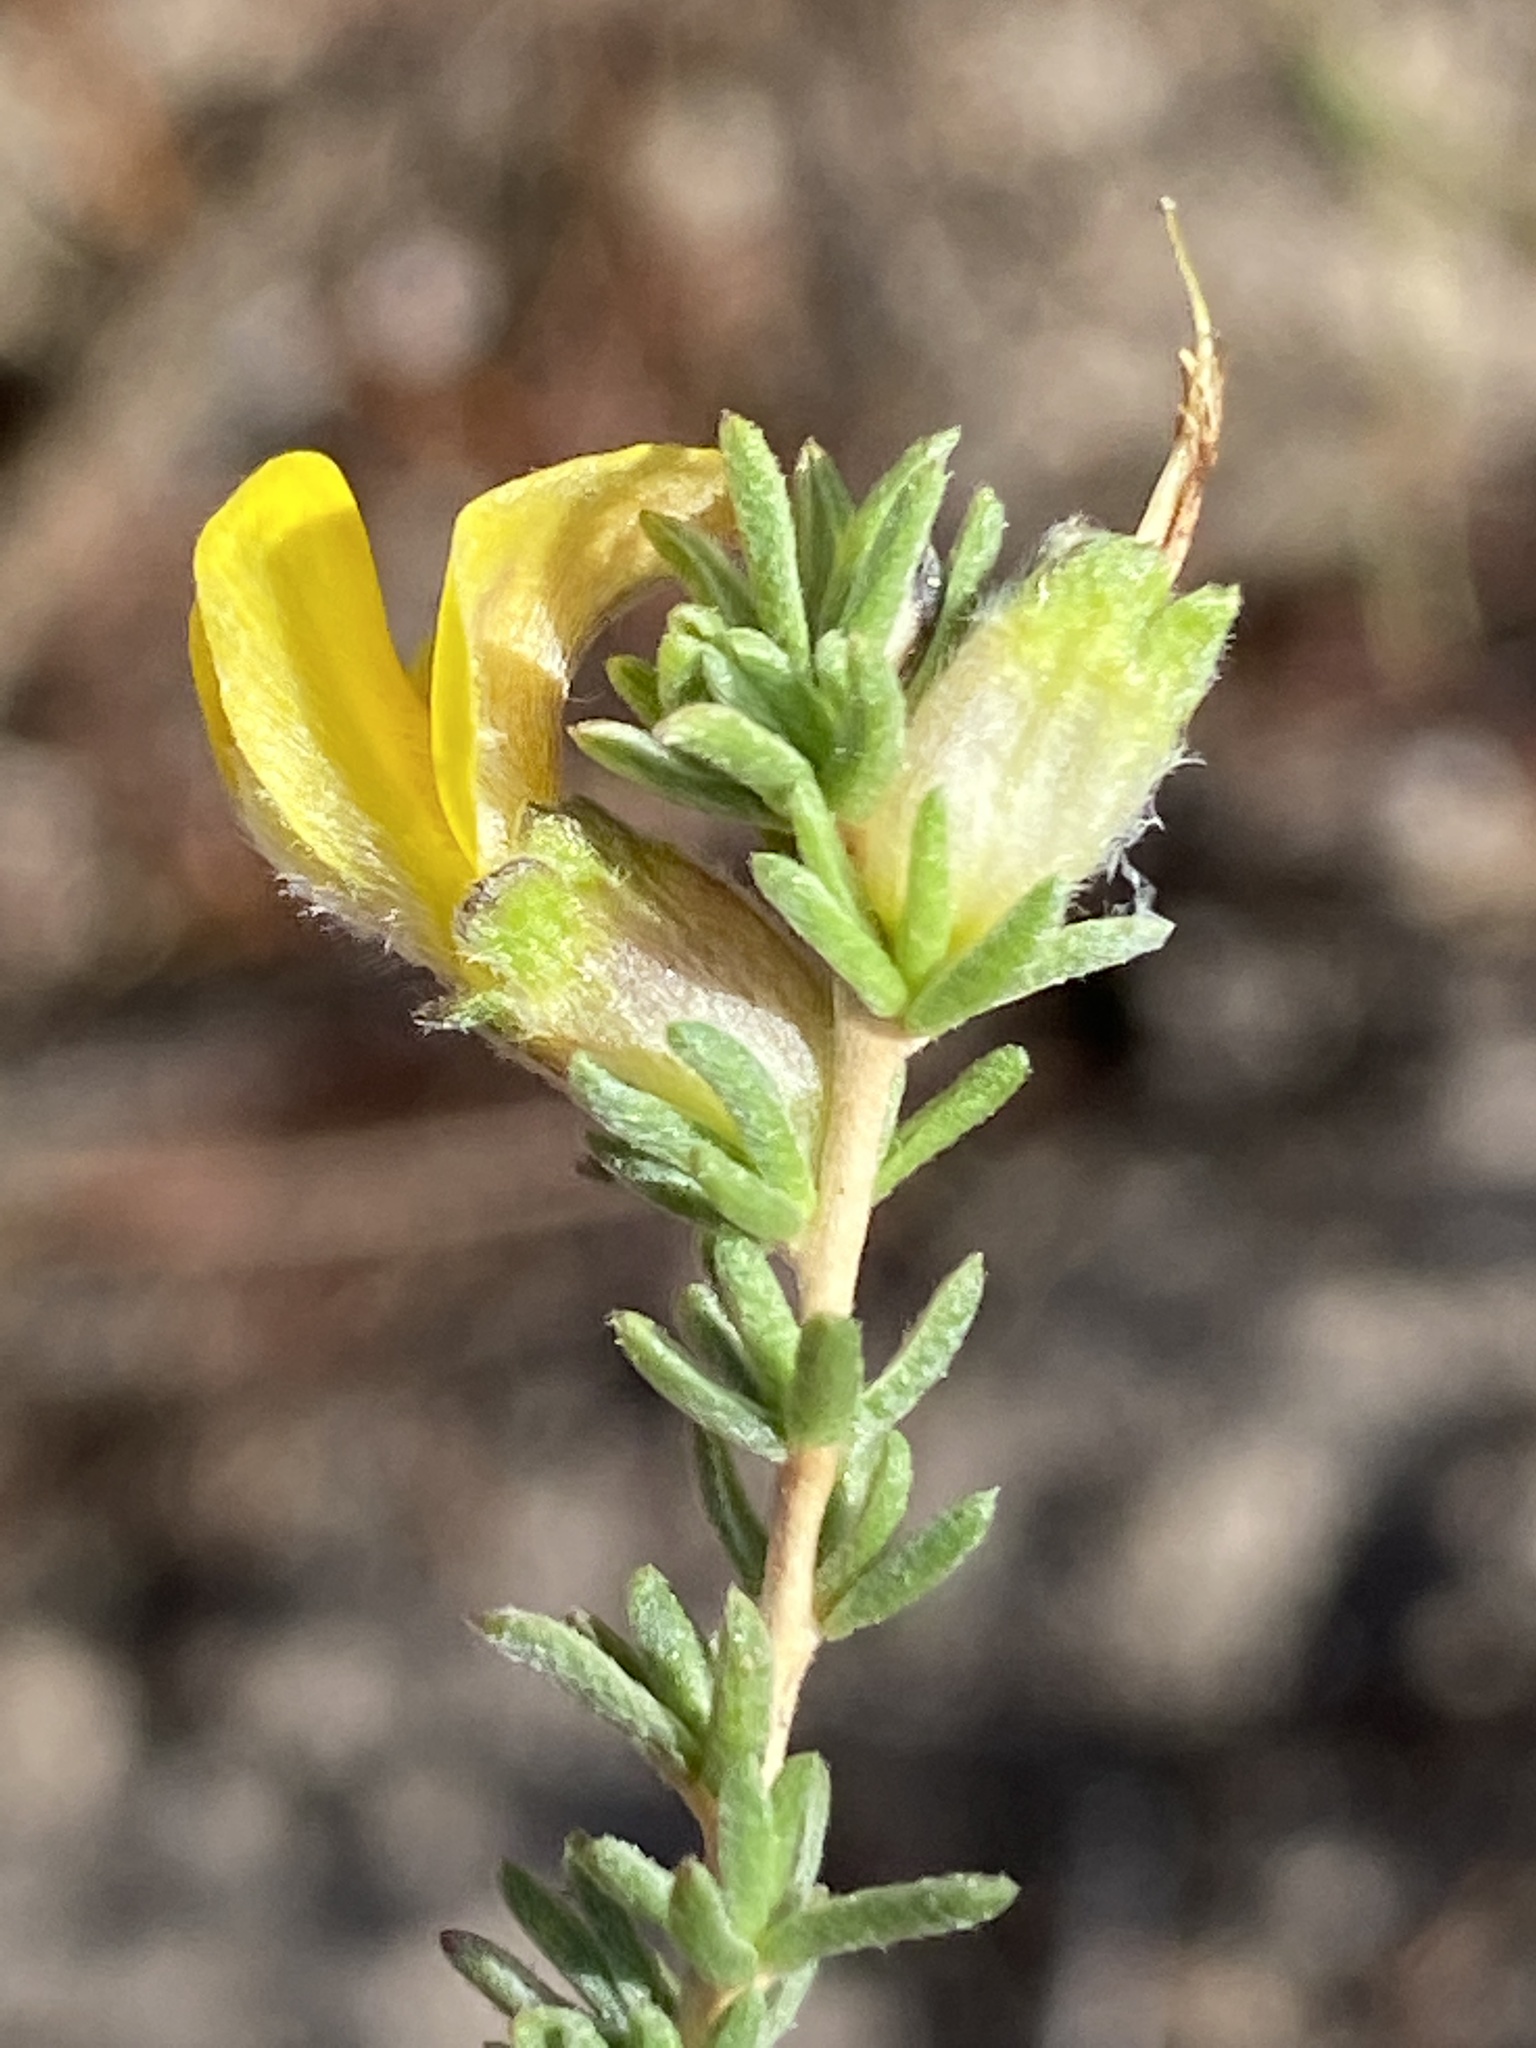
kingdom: Plantae
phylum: Tracheophyta
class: Magnoliopsida
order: Fabales
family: Fabaceae
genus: Aspalathus
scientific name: Aspalathus quadrata
